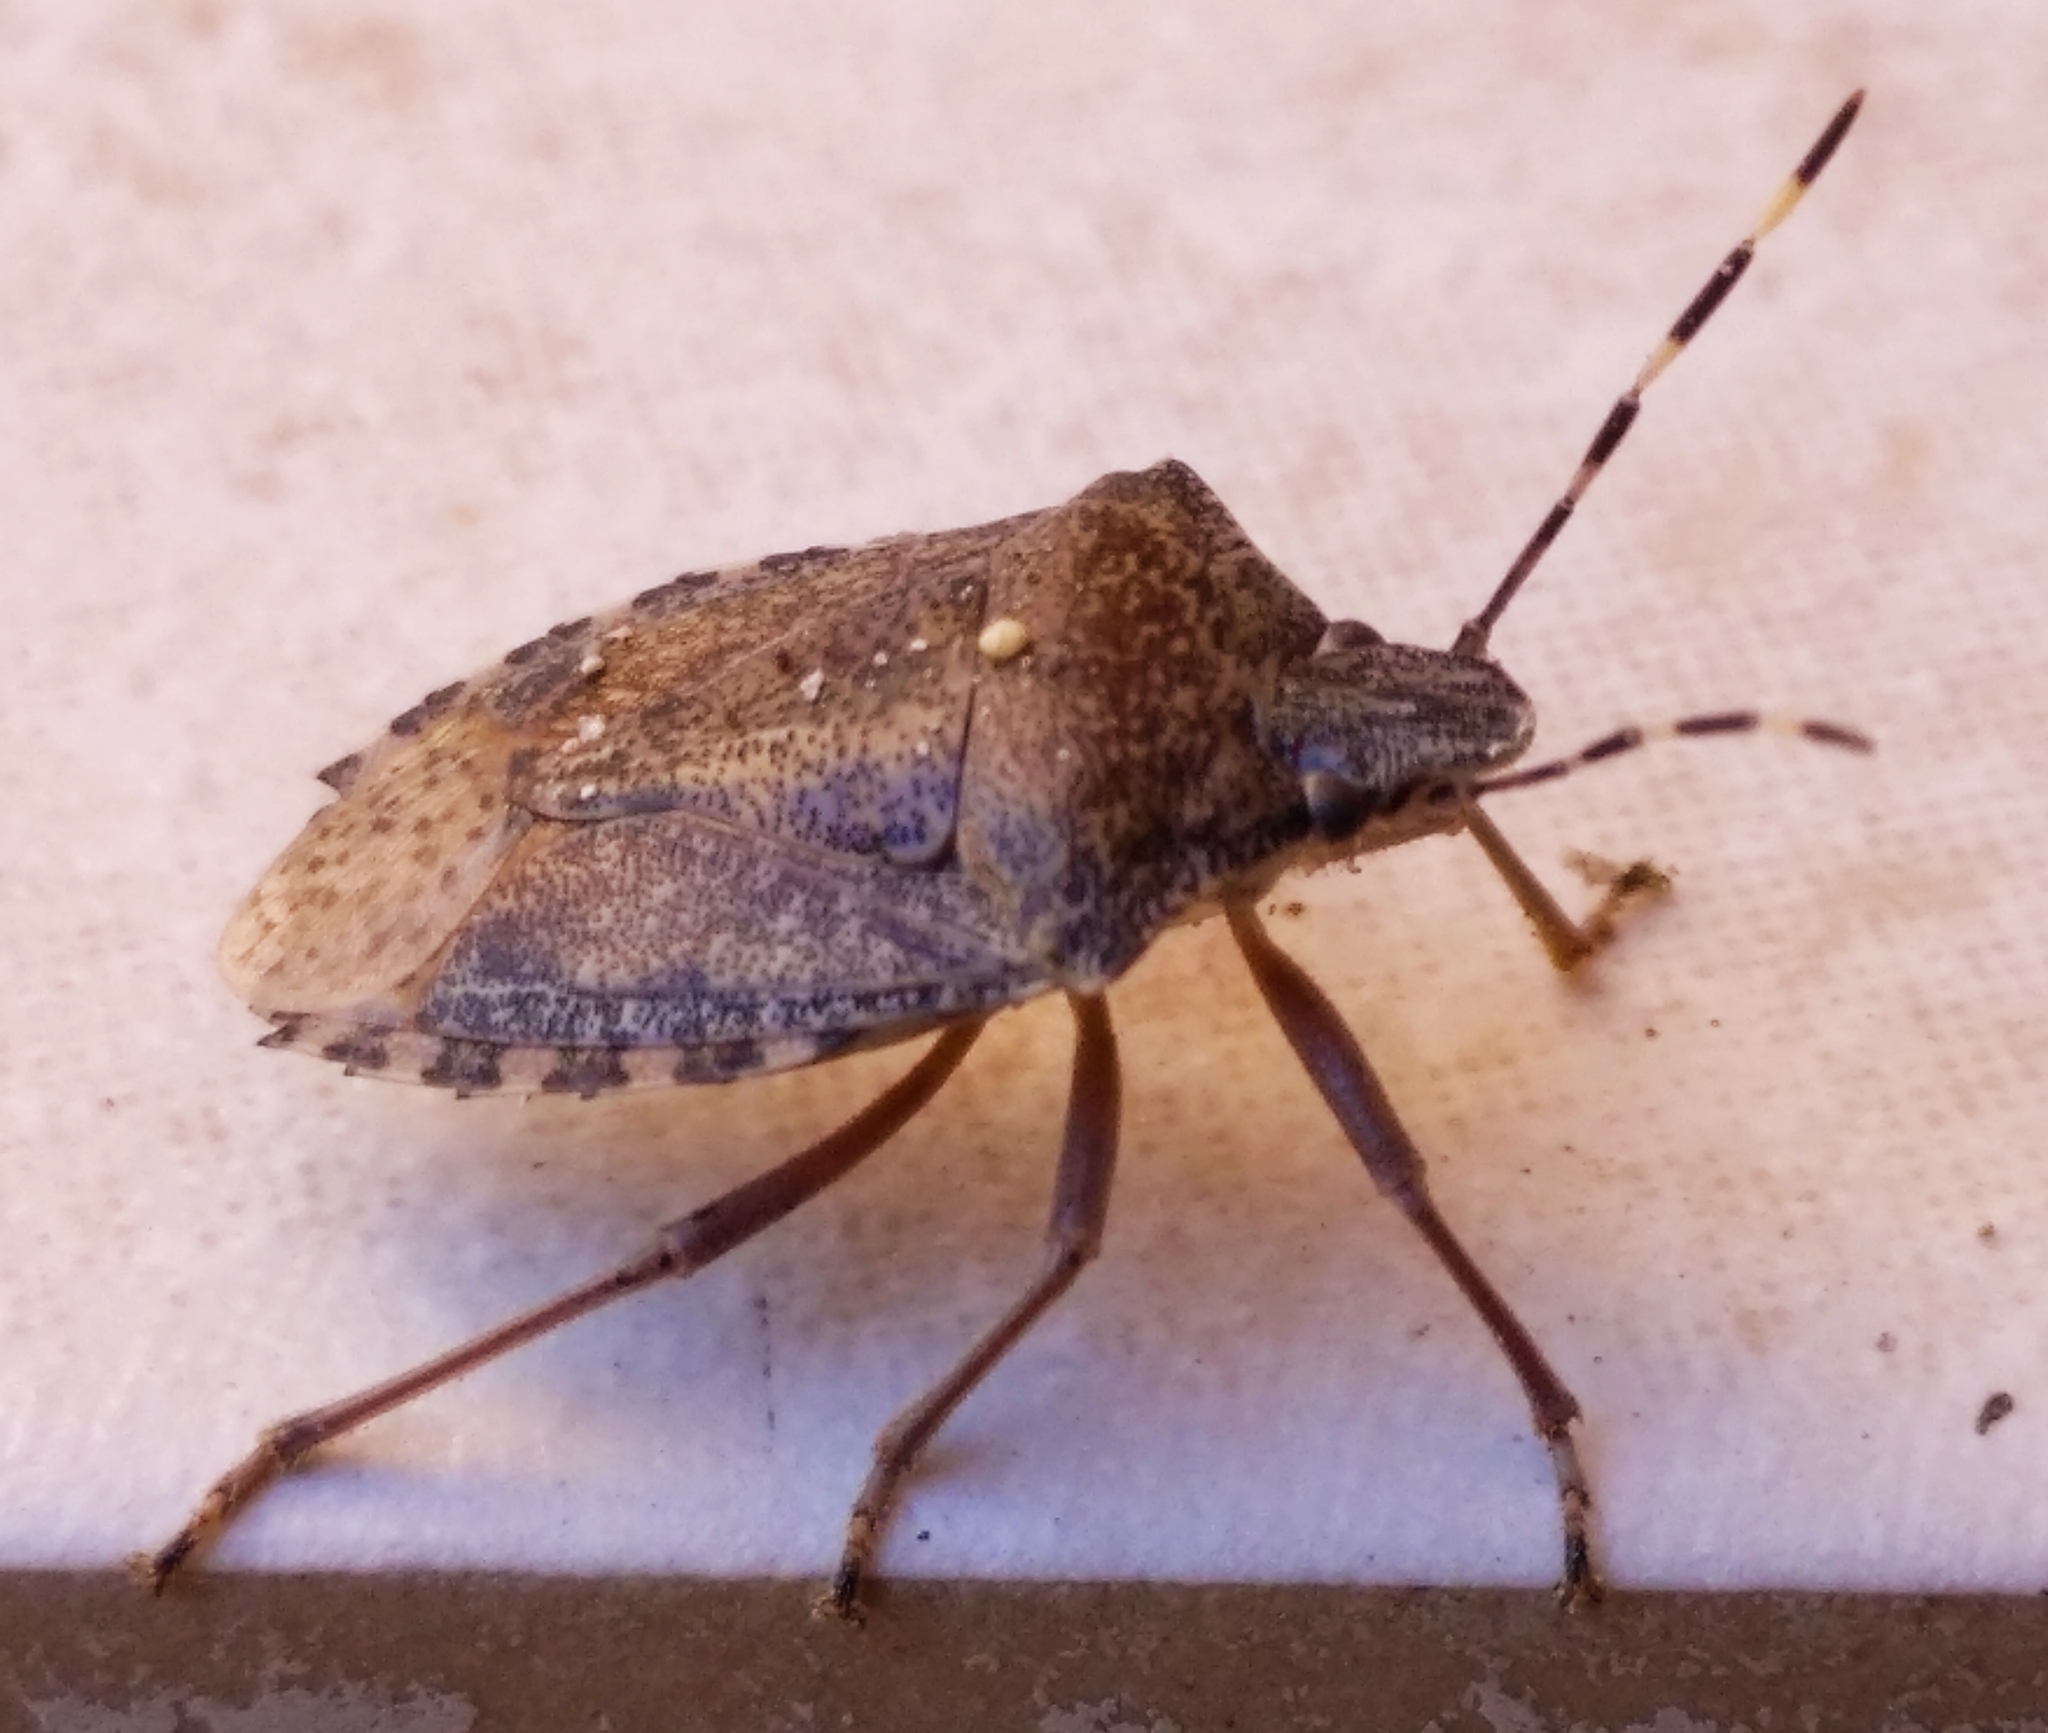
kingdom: Animalia
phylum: Arthropoda
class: Insecta
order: Hemiptera
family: Pentatomidae
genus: Rhaphigaster
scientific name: Rhaphigaster nebulosa
